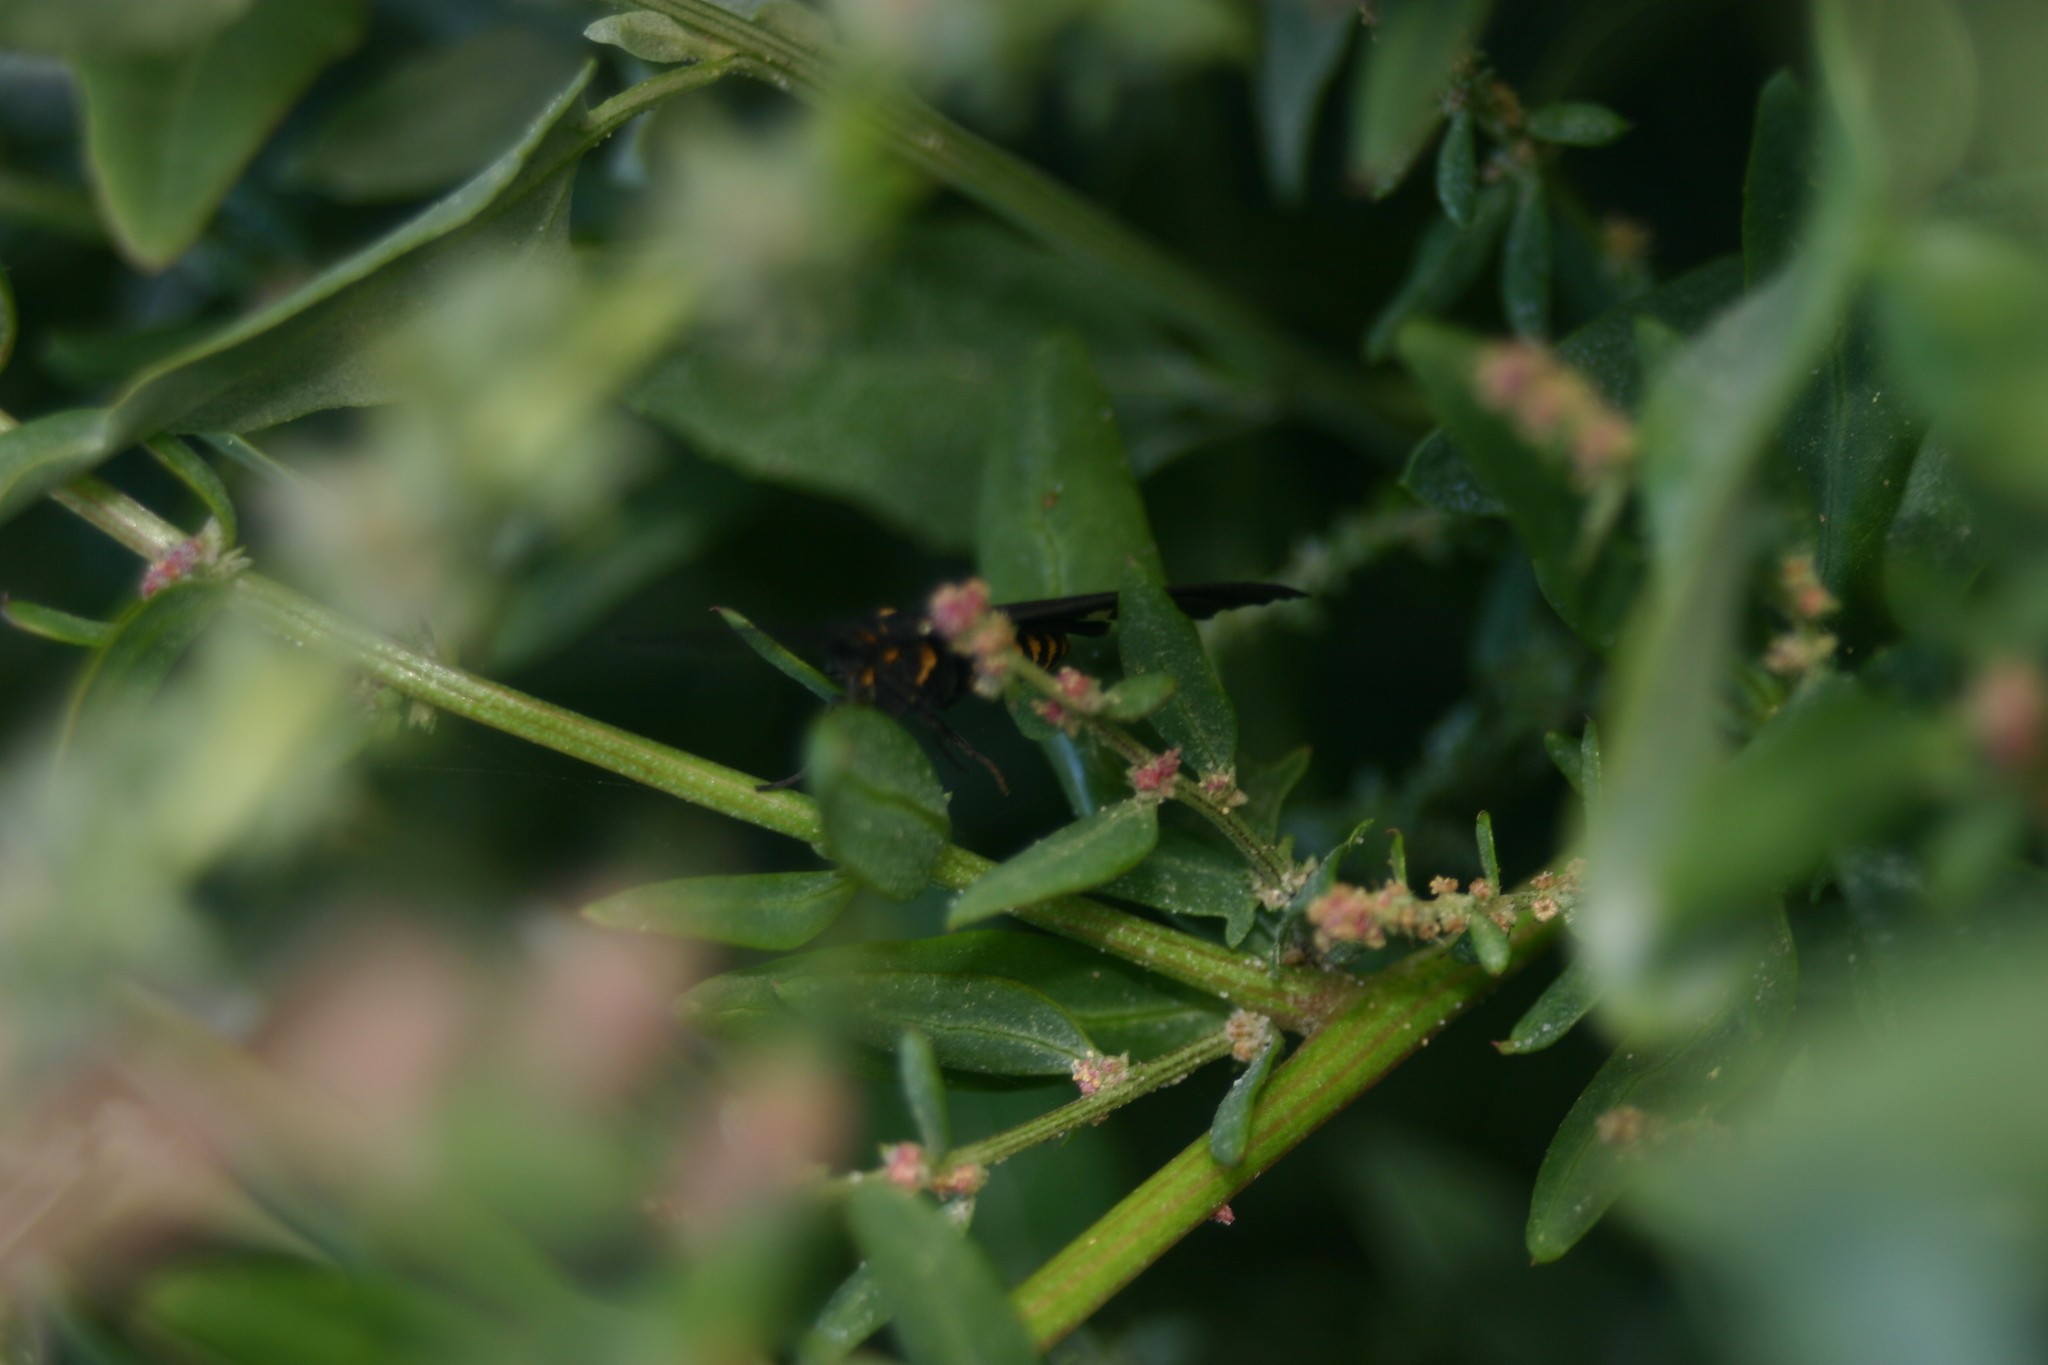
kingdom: Animalia
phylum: Arthropoda
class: Insecta
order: Lepidoptera
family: Erebidae
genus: Nyctemera
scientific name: Nyctemera annulatum
